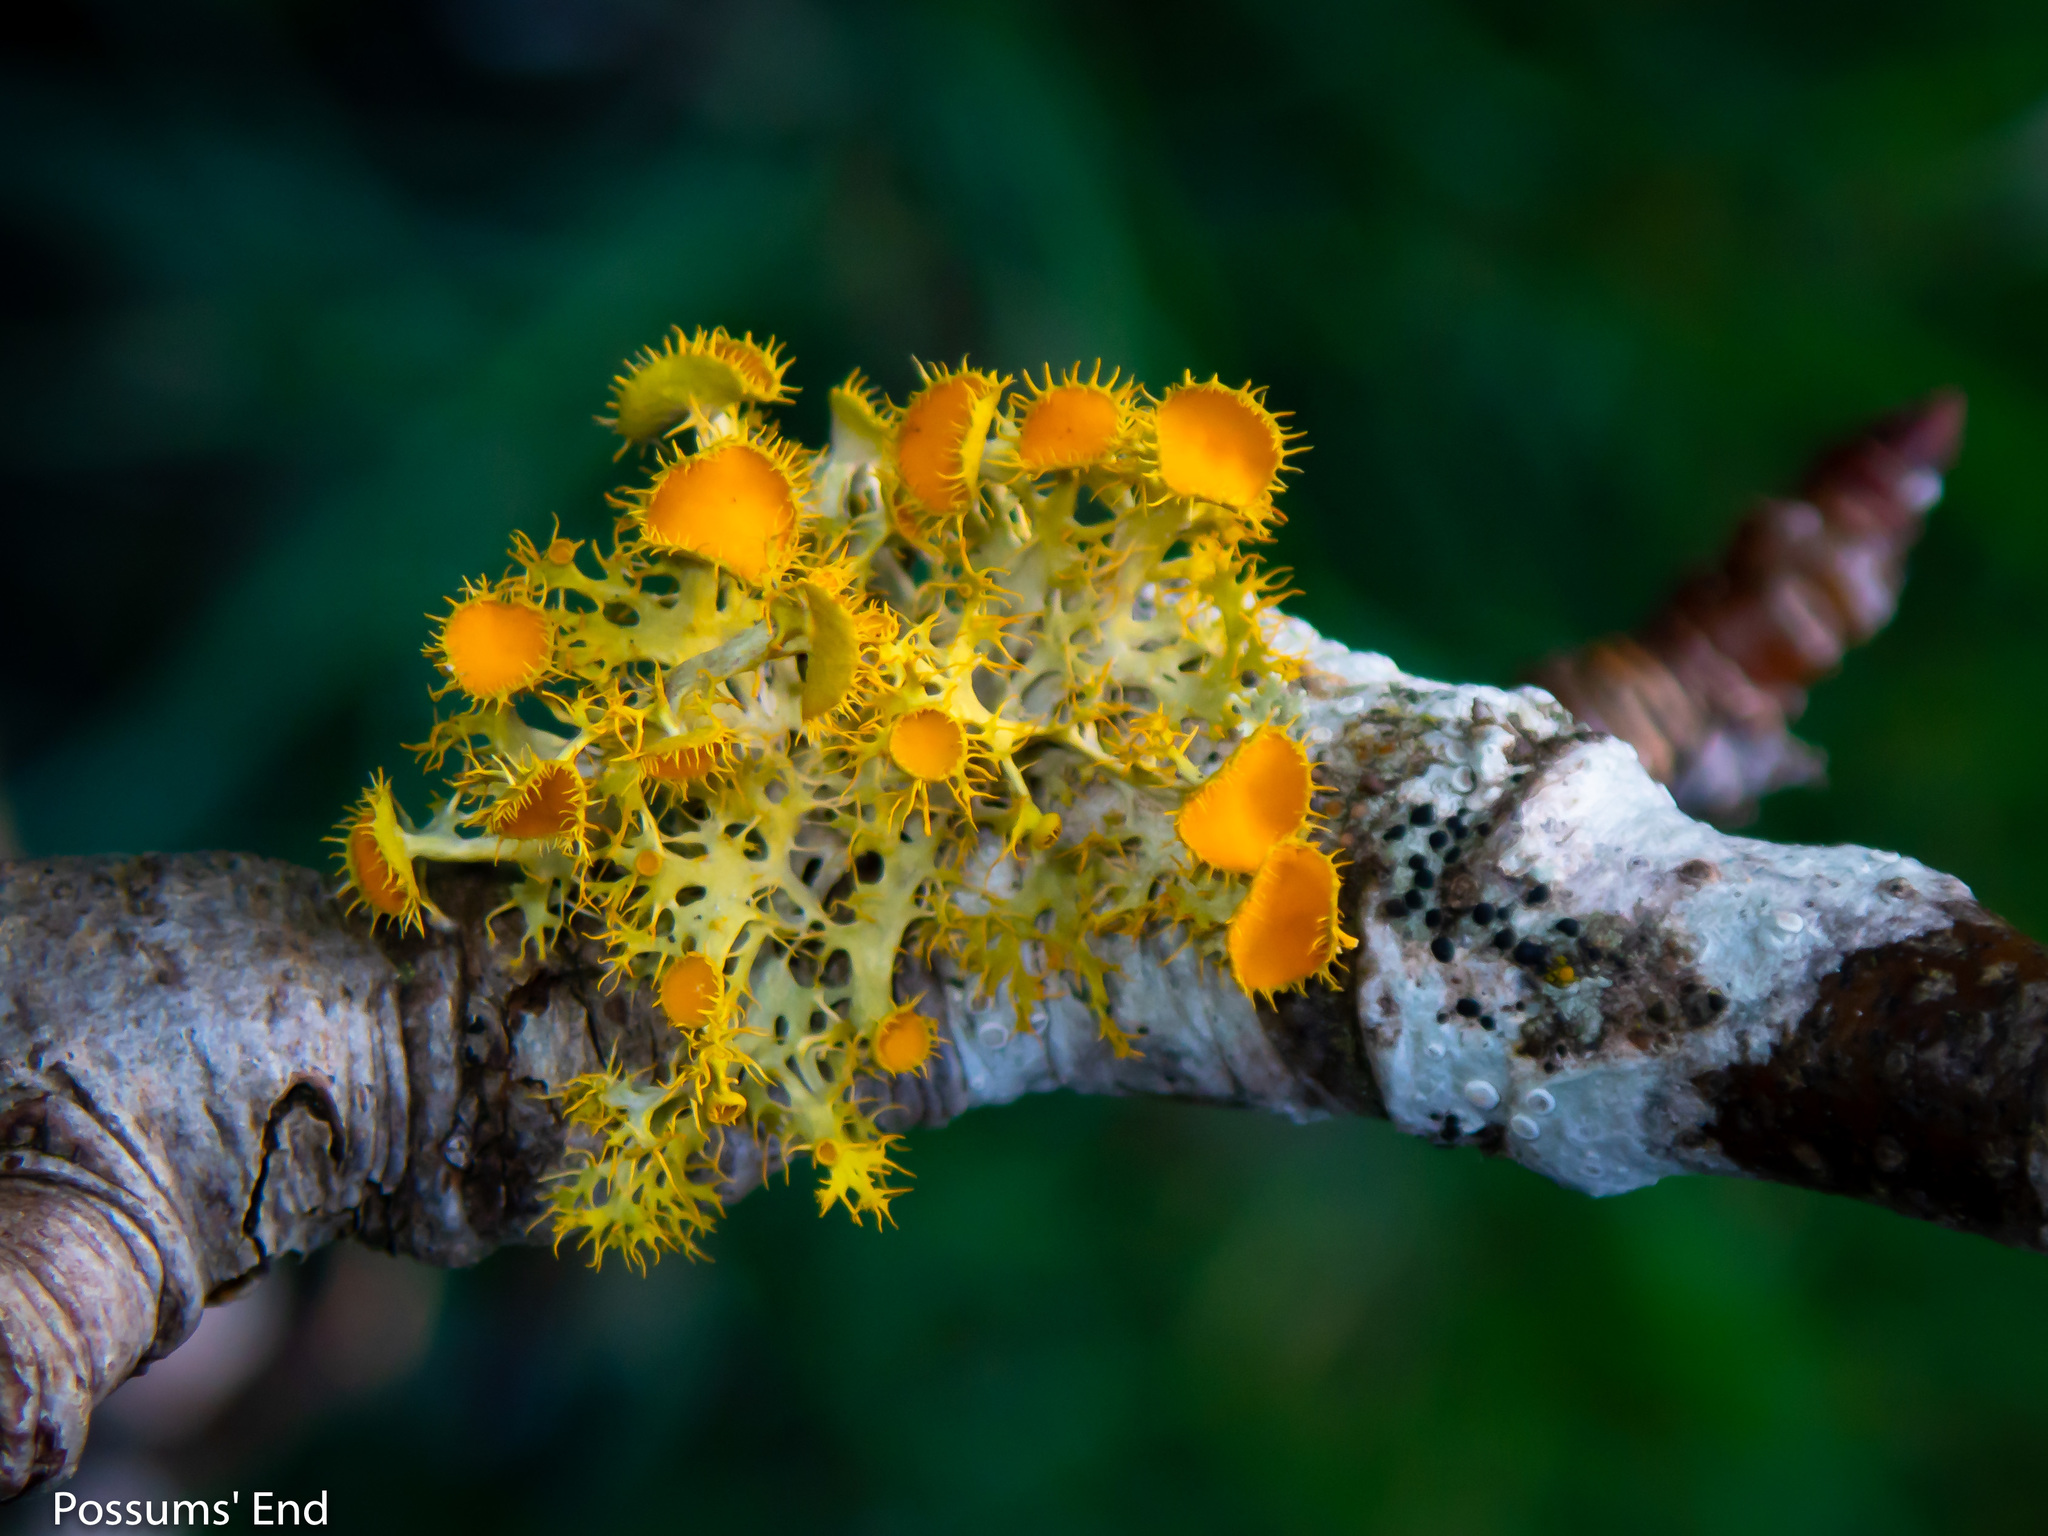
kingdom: Fungi
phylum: Ascomycota
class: Lecanoromycetes
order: Teloschistales
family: Teloschistaceae
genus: Niorma
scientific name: Niorma chrysophthalma
